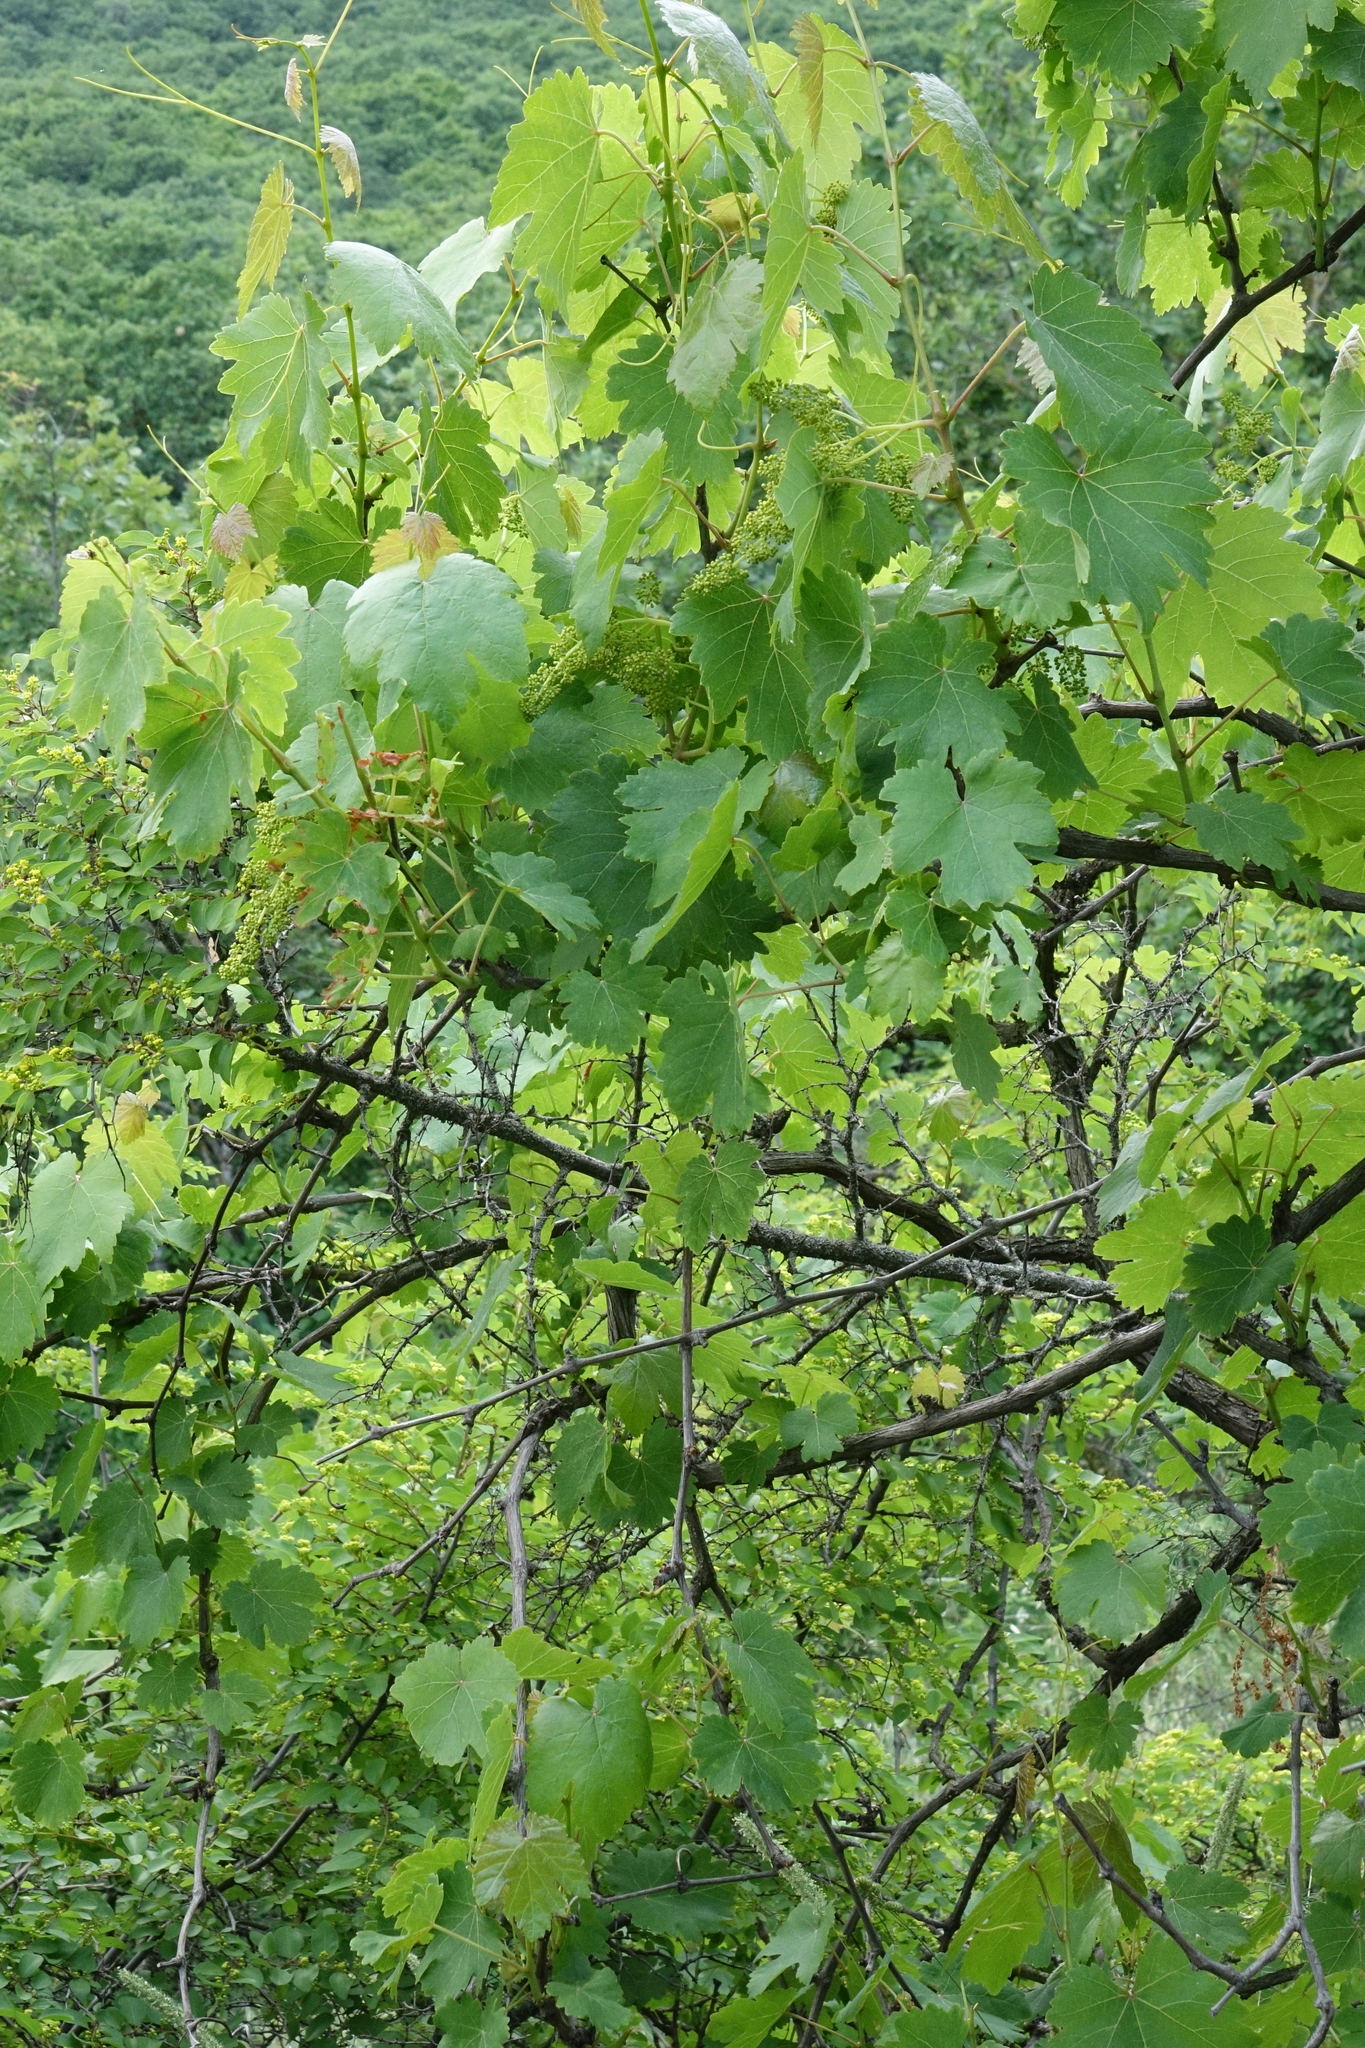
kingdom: Plantae
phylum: Tracheophyta
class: Magnoliopsida
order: Vitales
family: Vitaceae
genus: Vitis
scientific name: Vitis gmelinii
